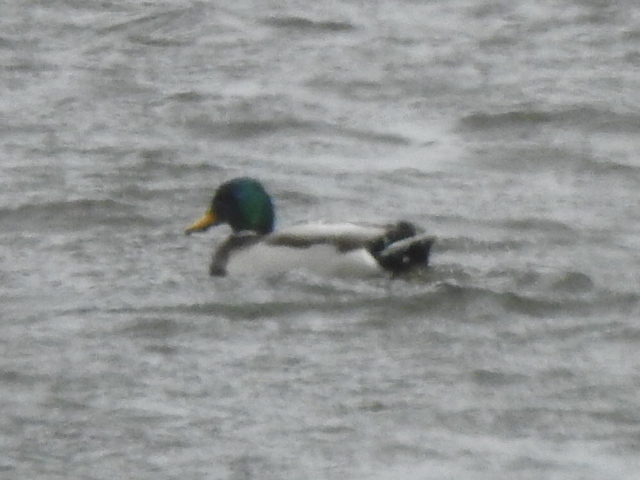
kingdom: Animalia
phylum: Chordata
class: Aves
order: Anseriformes
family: Anatidae
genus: Anas
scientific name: Anas platyrhynchos
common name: Mallard
